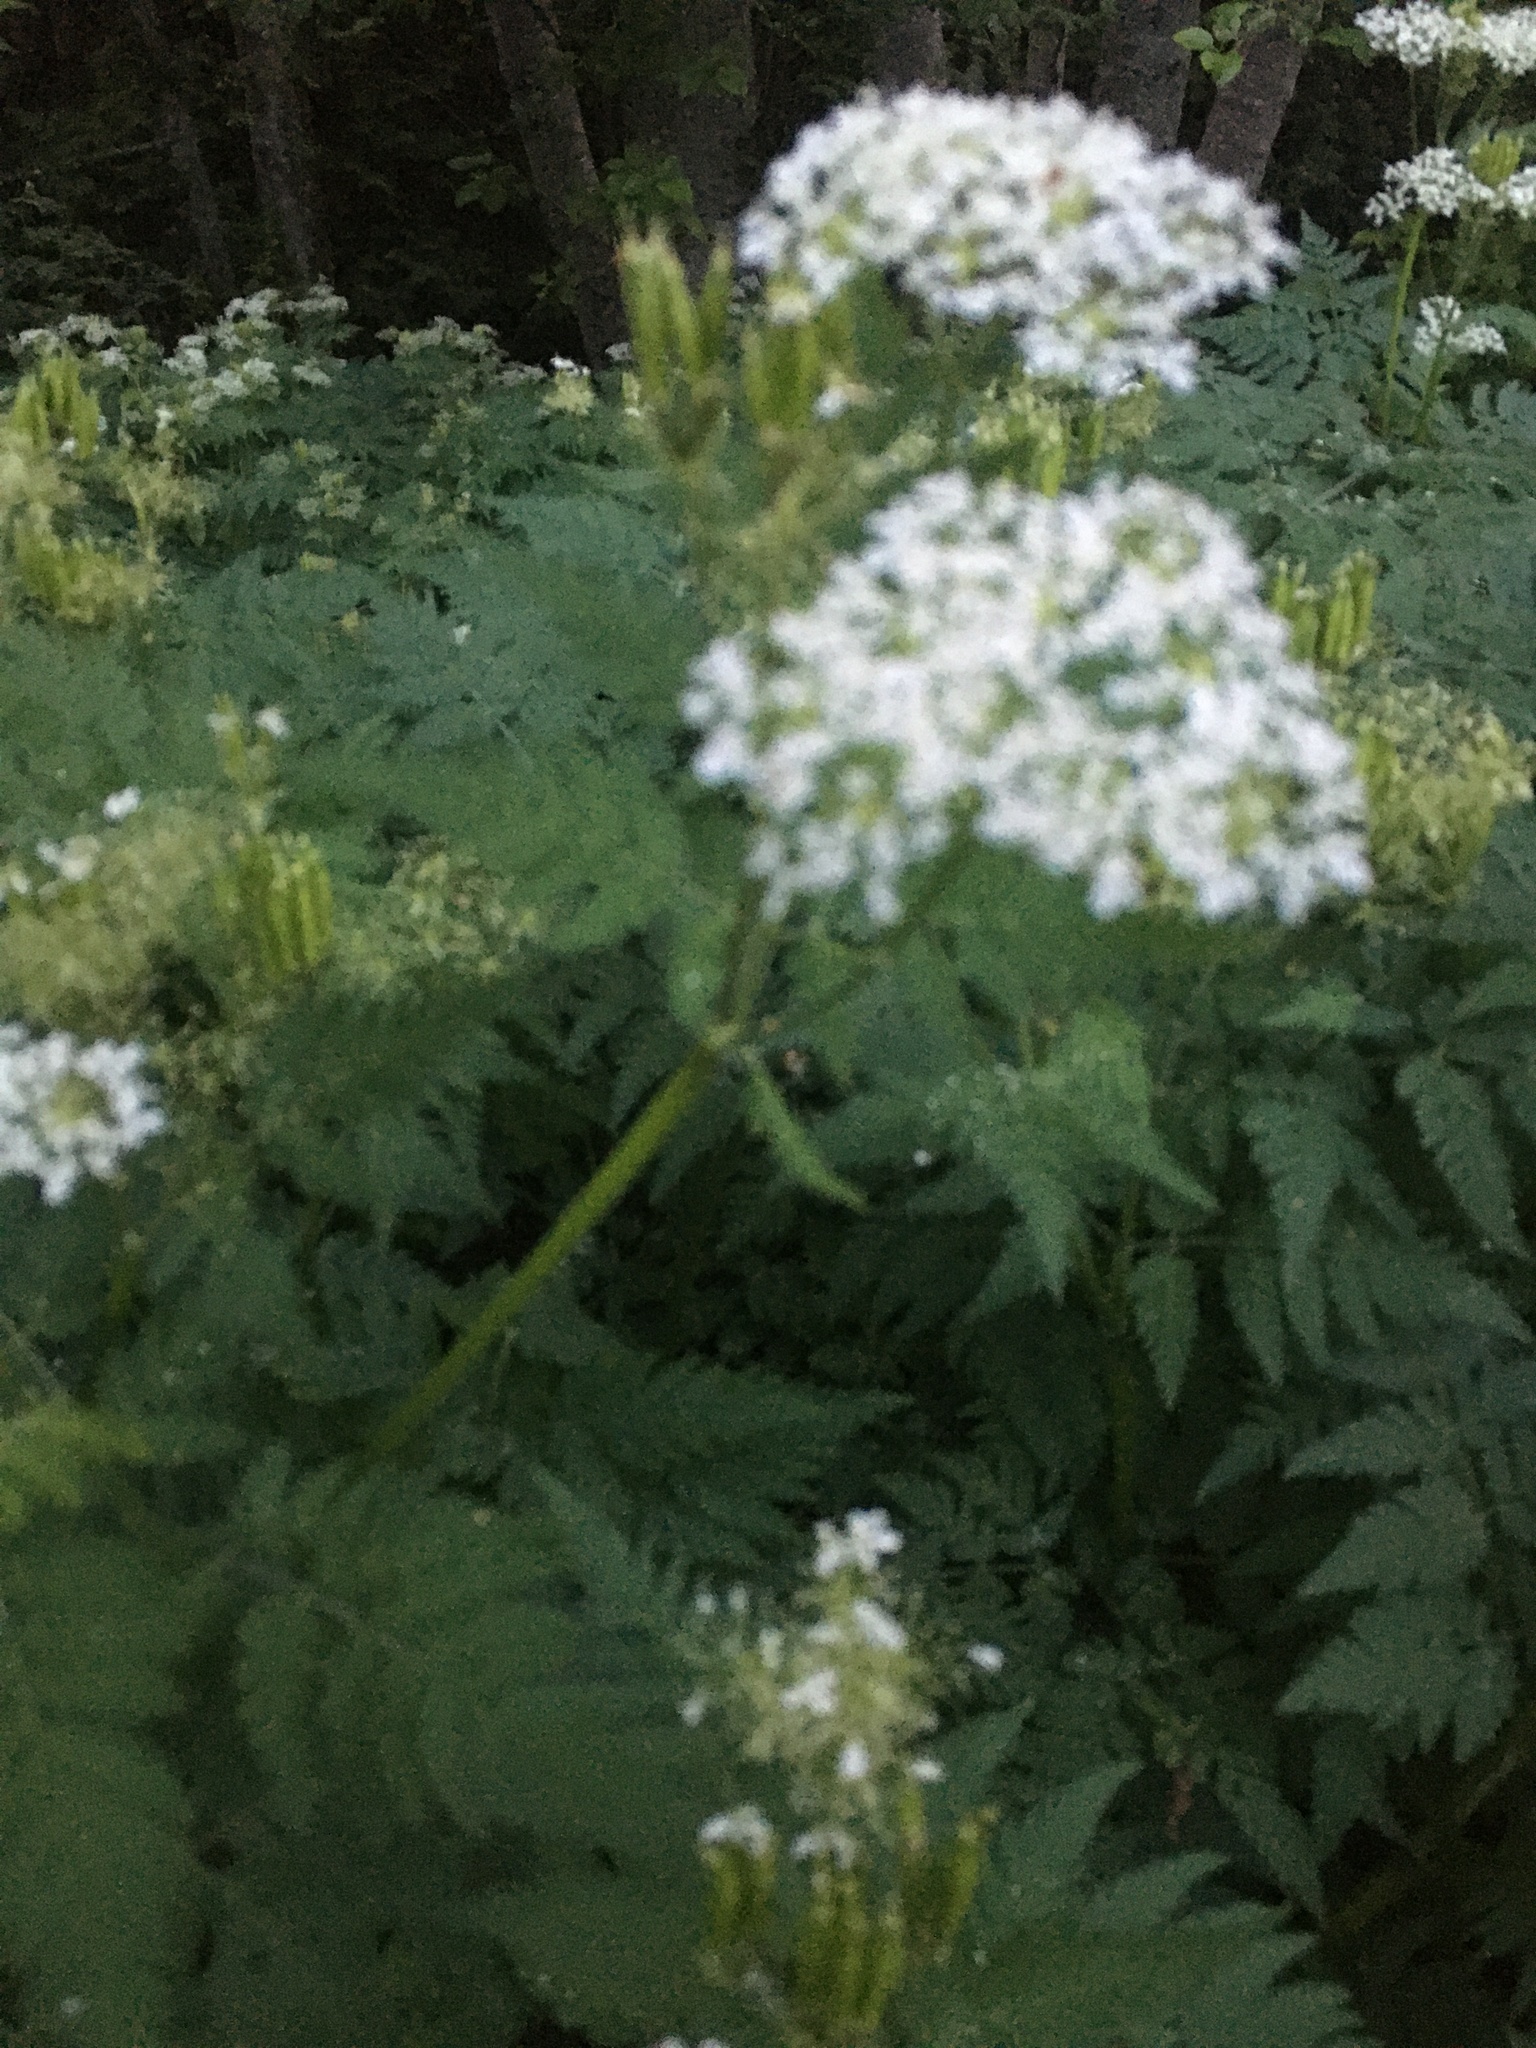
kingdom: Plantae
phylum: Tracheophyta
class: Magnoliopsida
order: Apiales
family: Apiaceae
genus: Myrrhis
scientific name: Myrrhis odorata
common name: Sweet cicely
